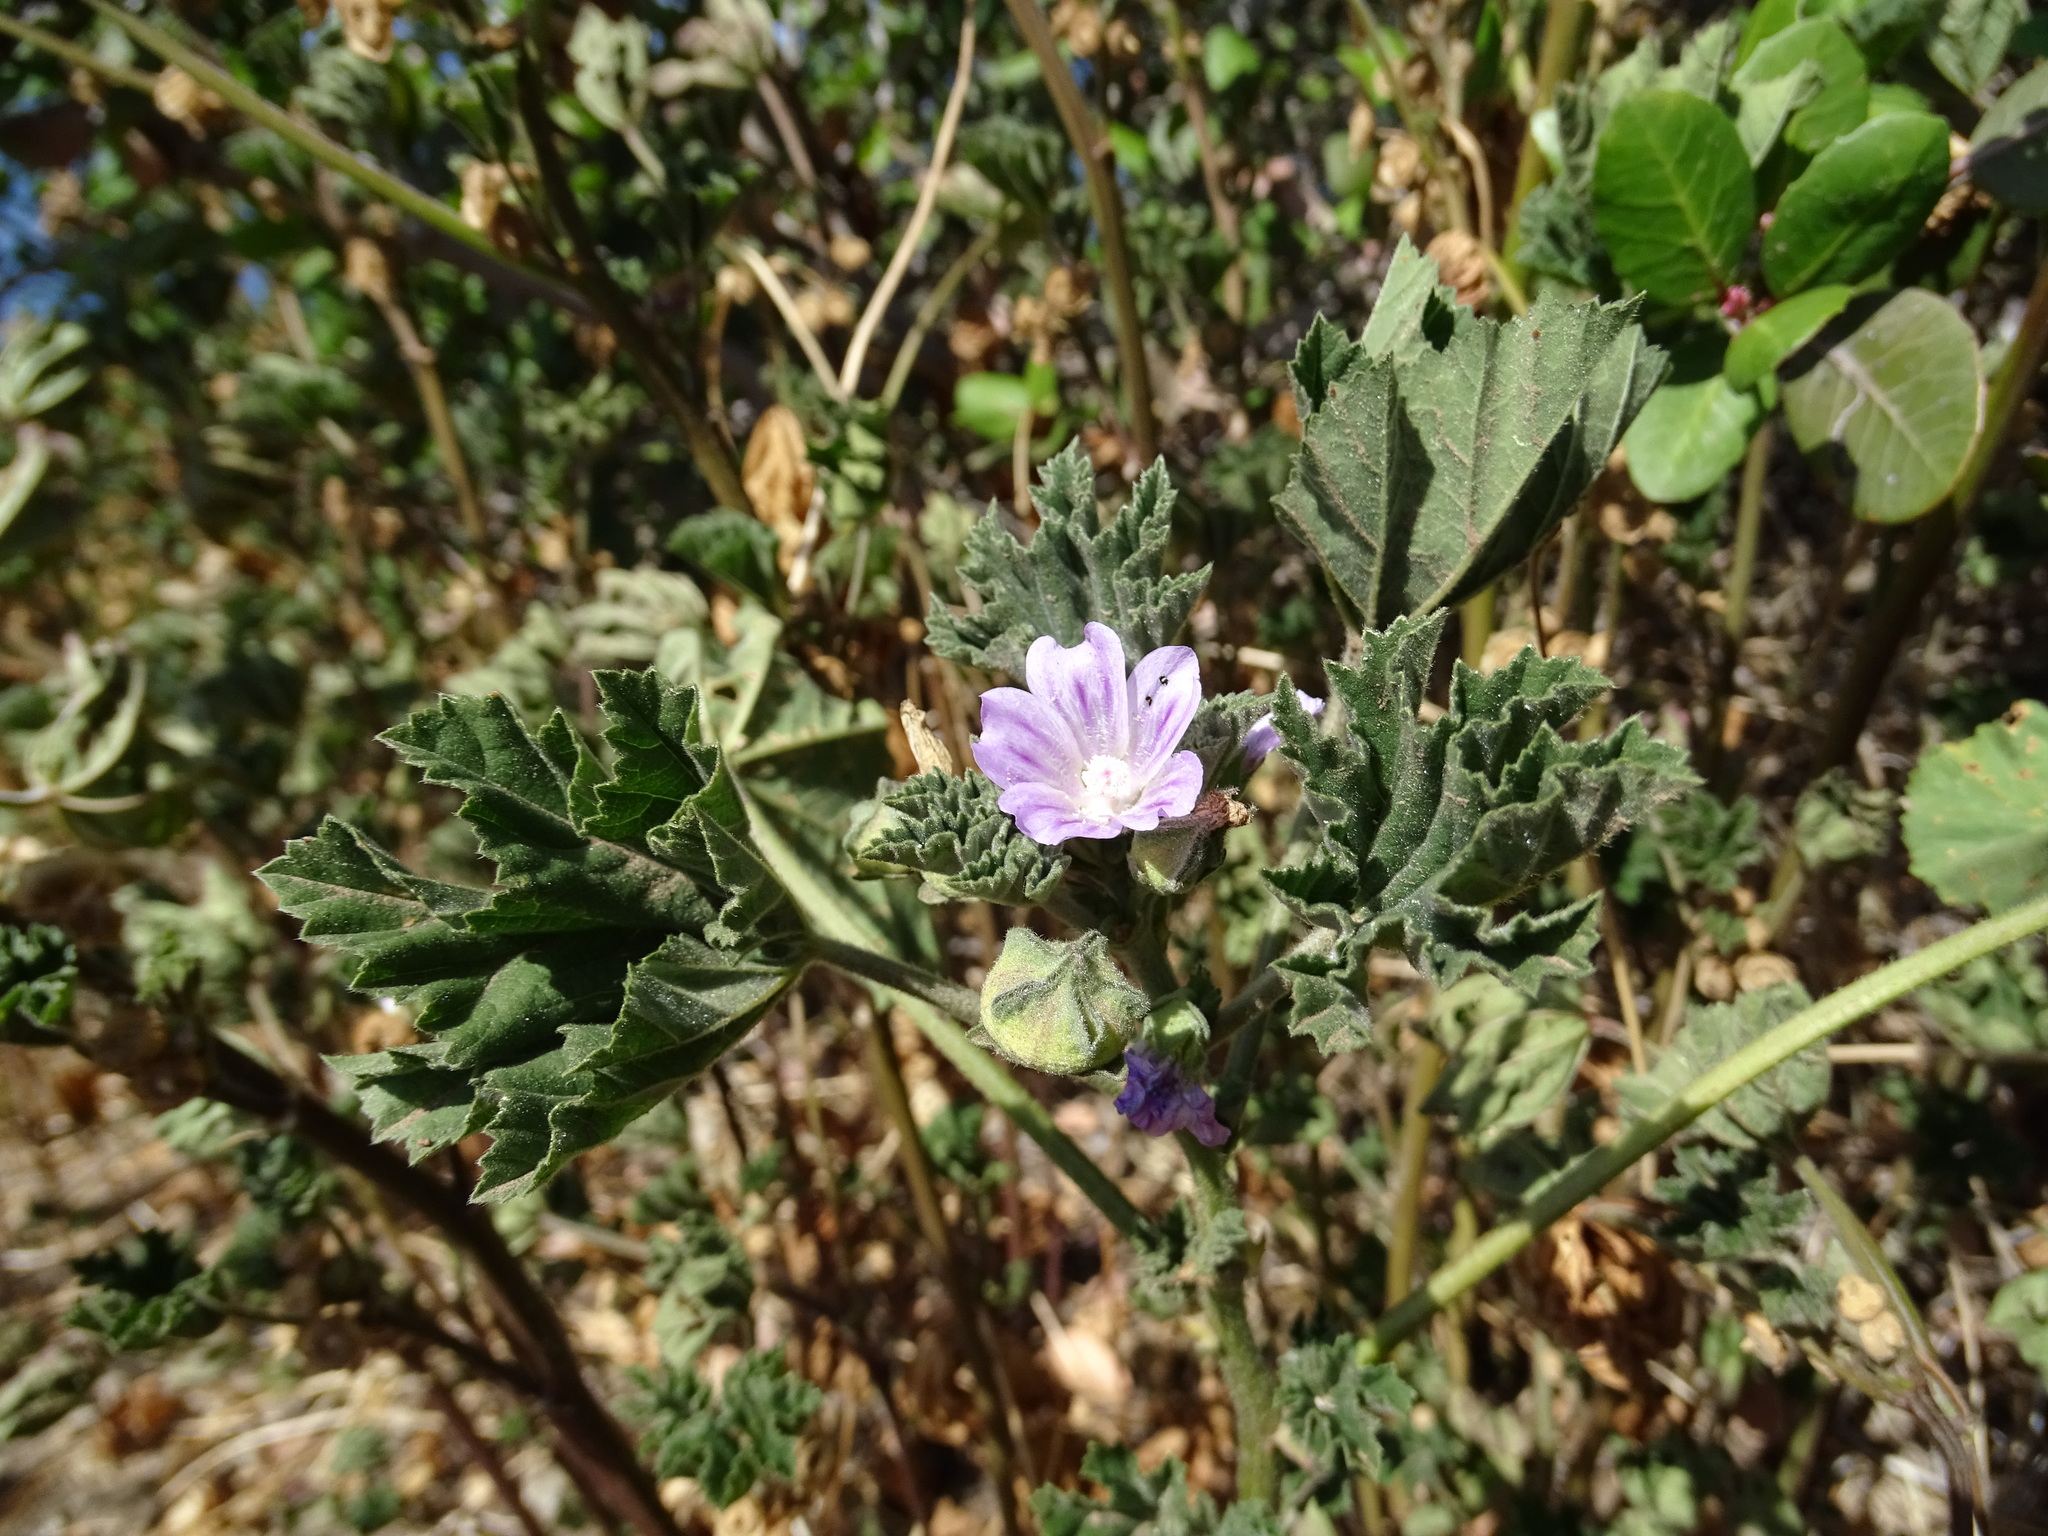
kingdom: Plantae
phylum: Tracheophyta
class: Magnoliopsida
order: Malvales
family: Malvaceae
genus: Malva
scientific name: Malva multiflora
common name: Cheeseweed
